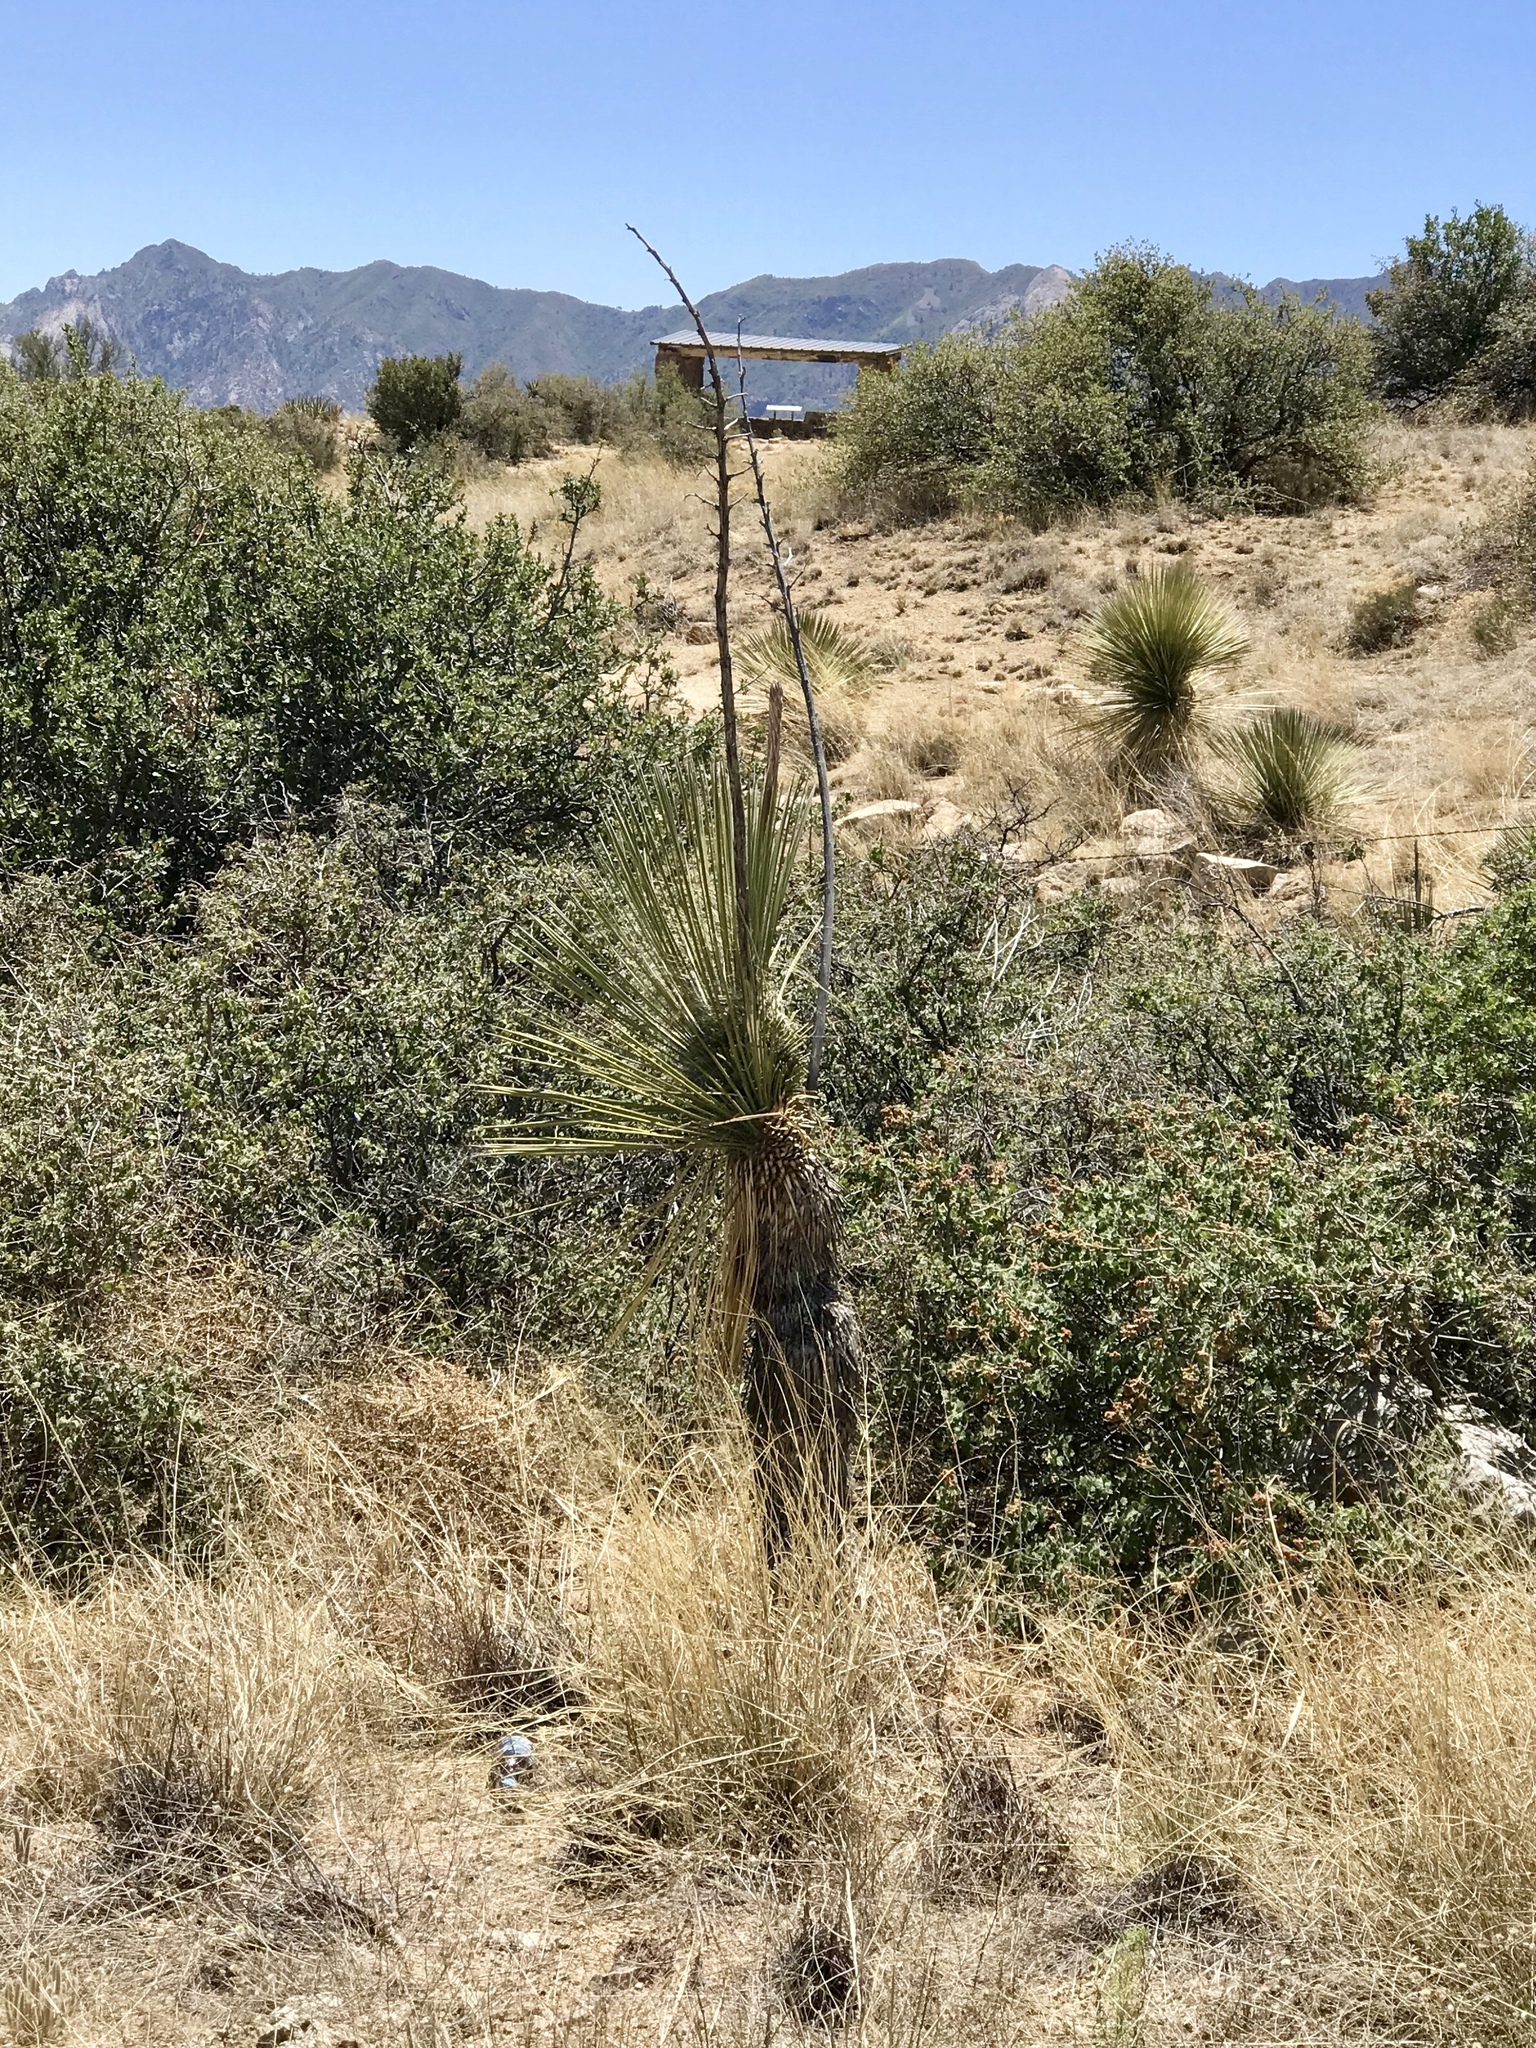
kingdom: Plantae
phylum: Tracheophyta
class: Liliopsida
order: Asparagales
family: Asparagaceae
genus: Yucca
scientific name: Yucca elata
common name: Palmella
